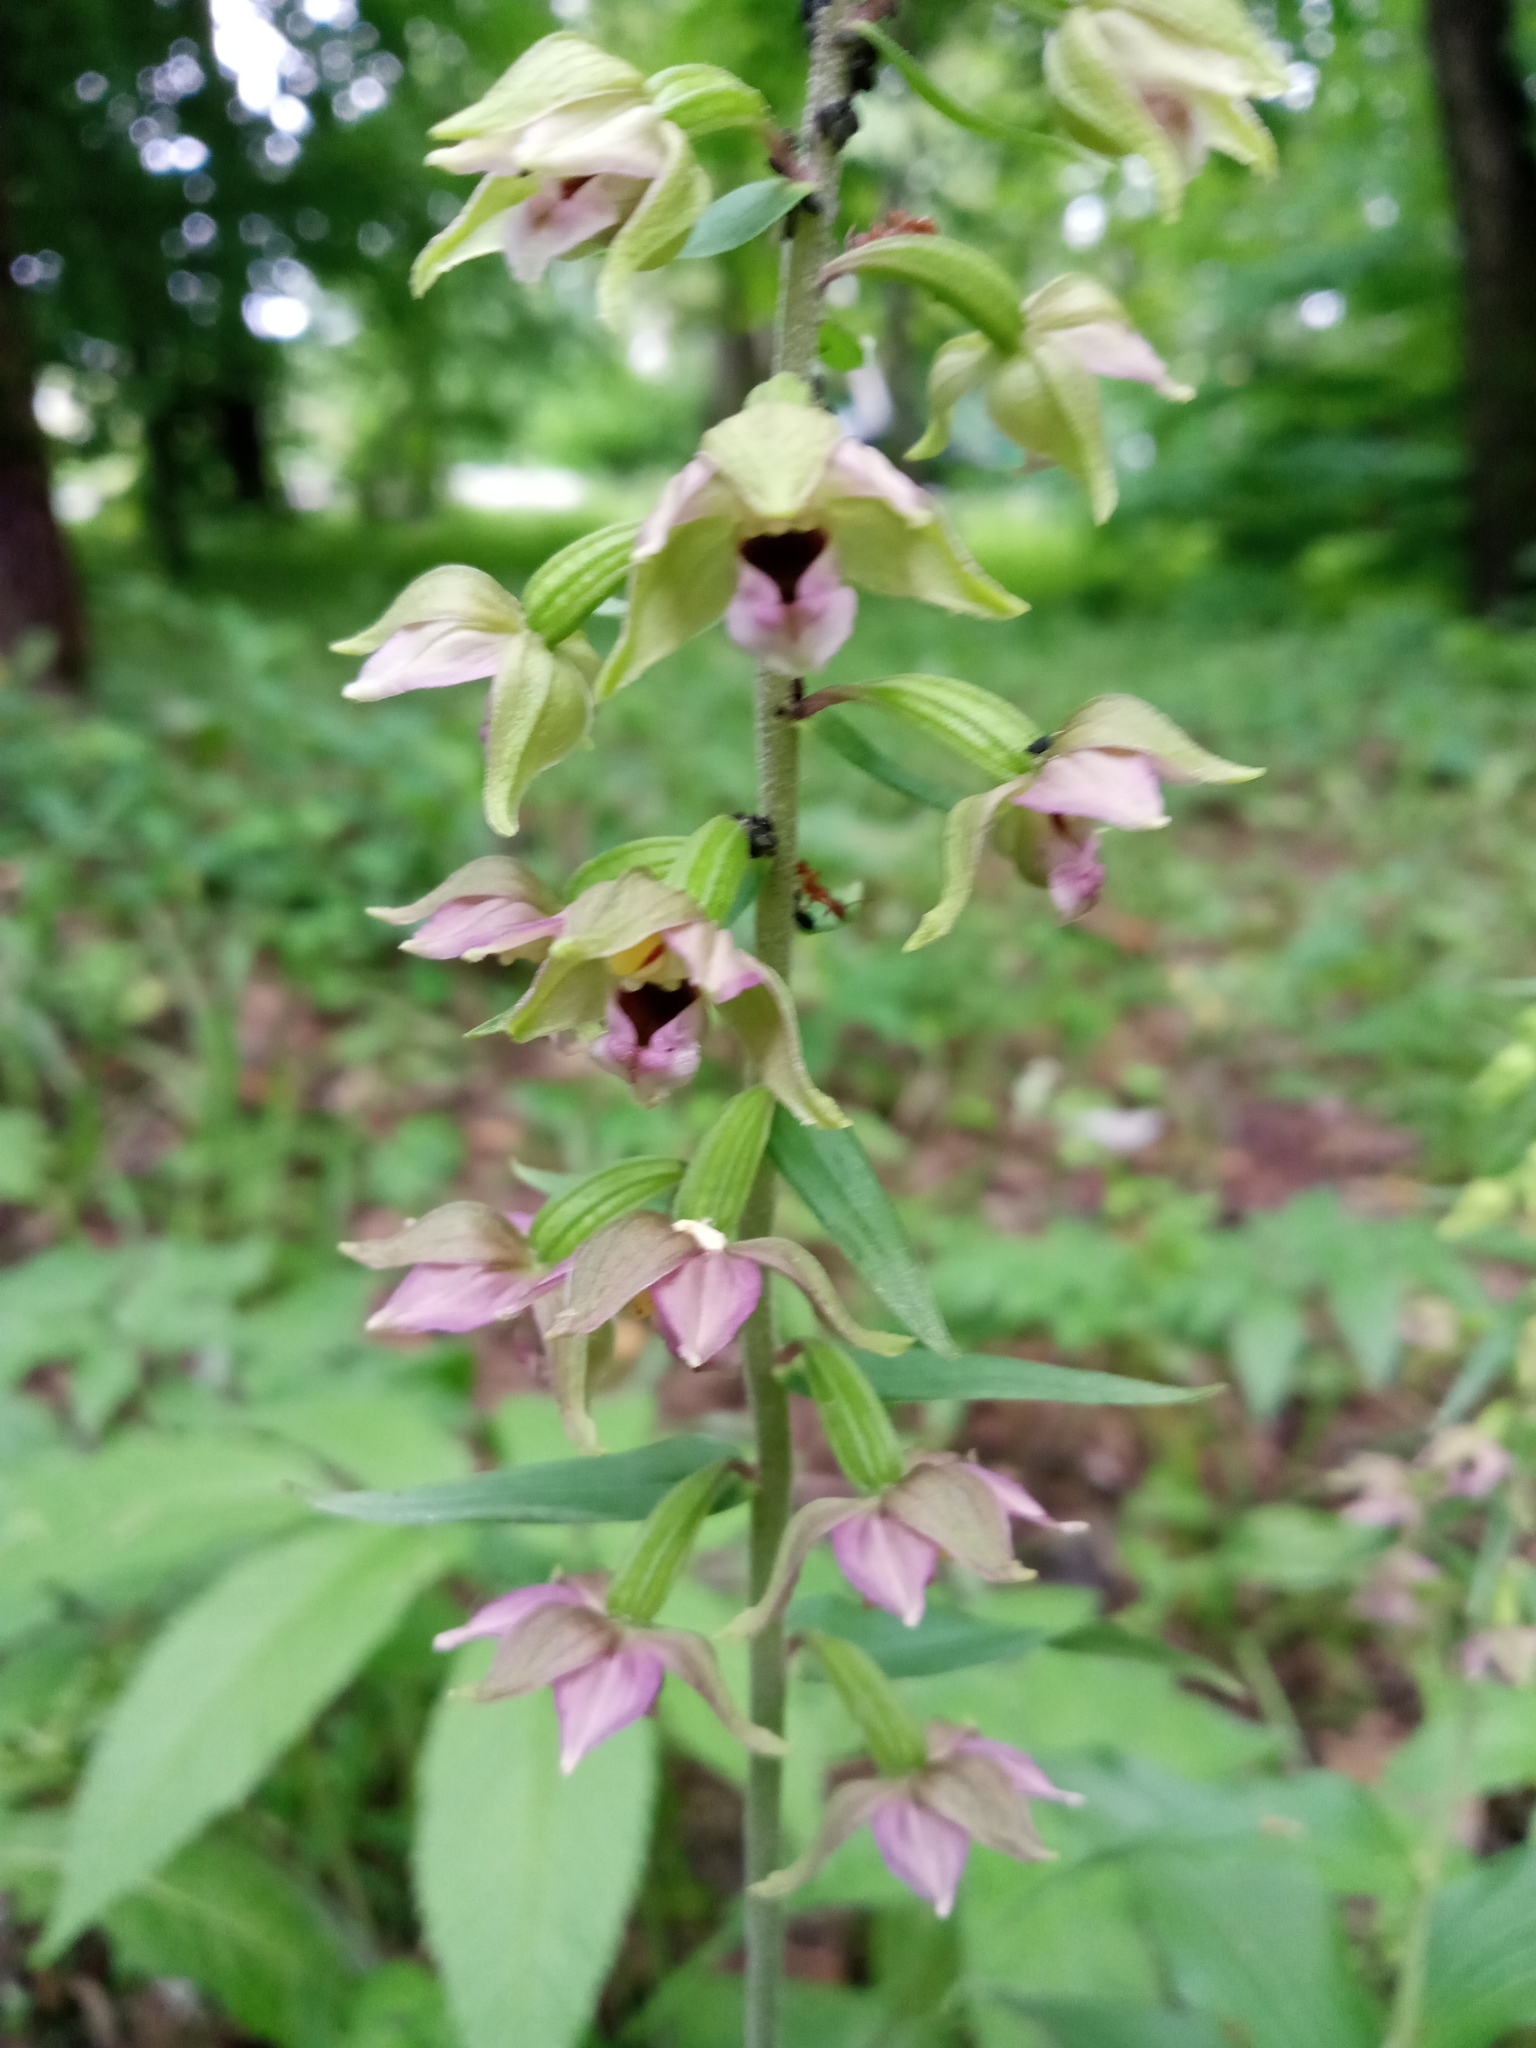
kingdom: Plantae
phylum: Tracheophyta
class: Liliopsida
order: Asparagales
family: Orchidaceae
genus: Epipactis
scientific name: Epipactis helleborine
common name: Broad-leaved helleborine
